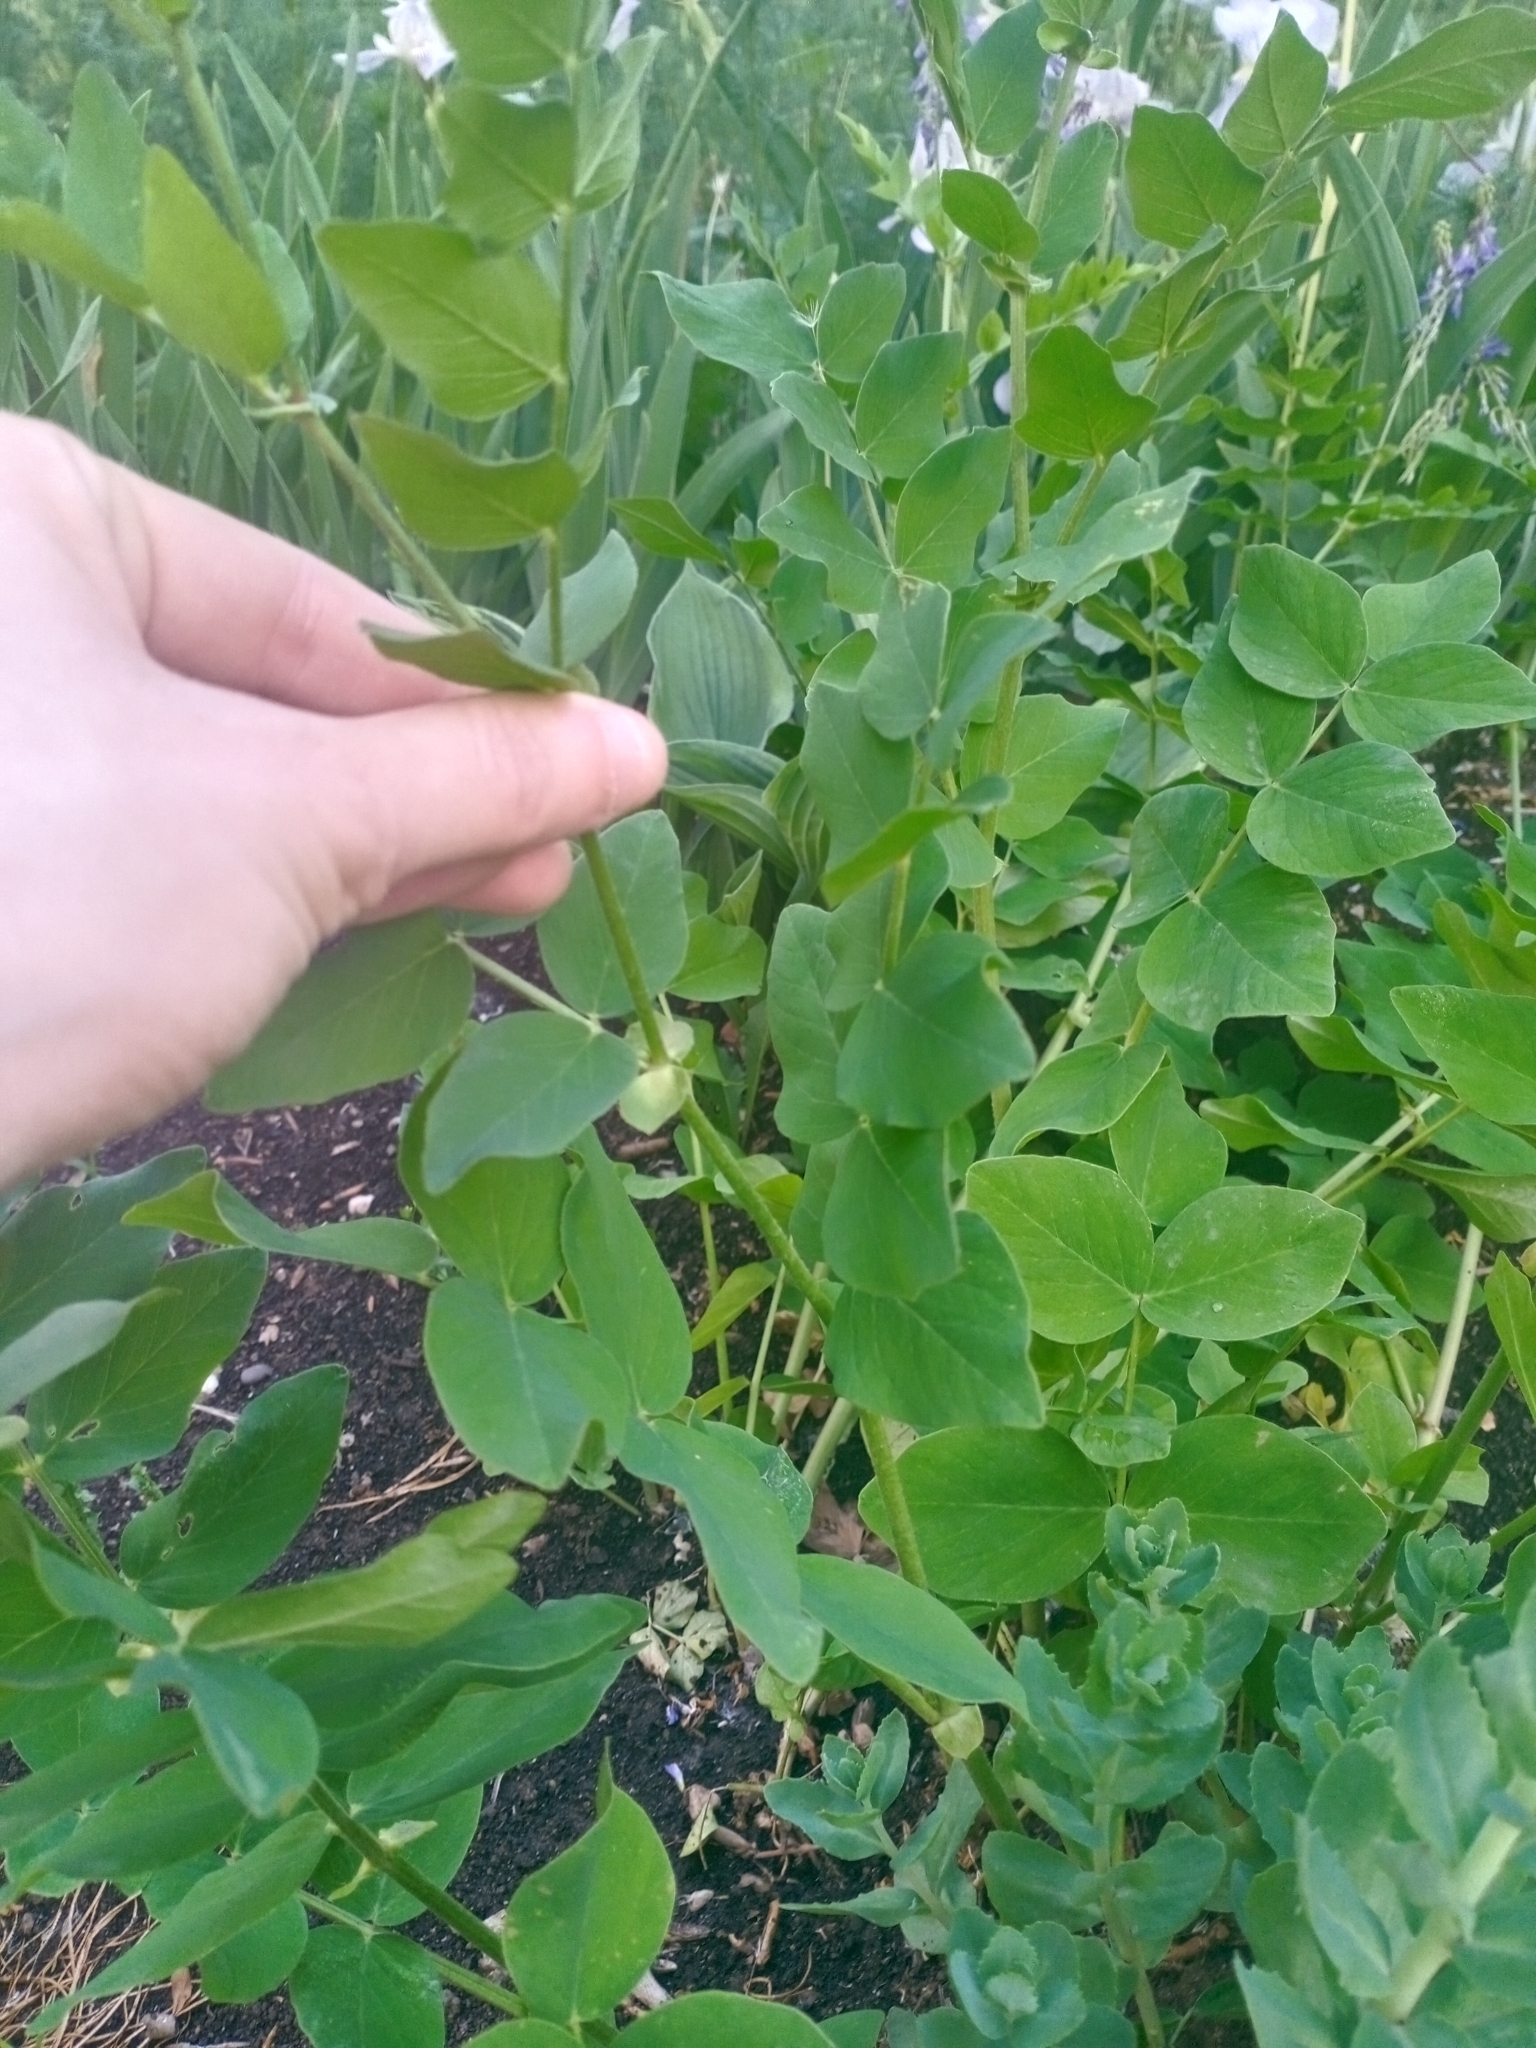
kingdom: Plantae
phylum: Tracheophyta
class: Magnoliopsida
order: Fabales
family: Fabaceae
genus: Galega
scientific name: Galega orientalis
